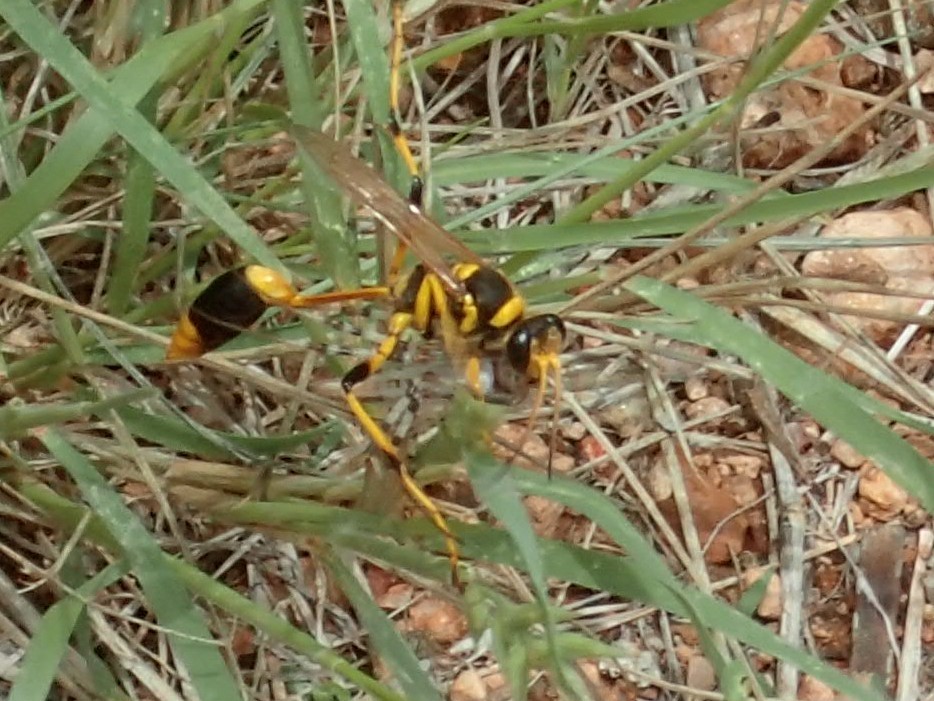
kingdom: Animalia
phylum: Arthropoda
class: Insecta
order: Hymenoptera
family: Sphecidae
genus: Sceliphron
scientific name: Sceliphron laetum
